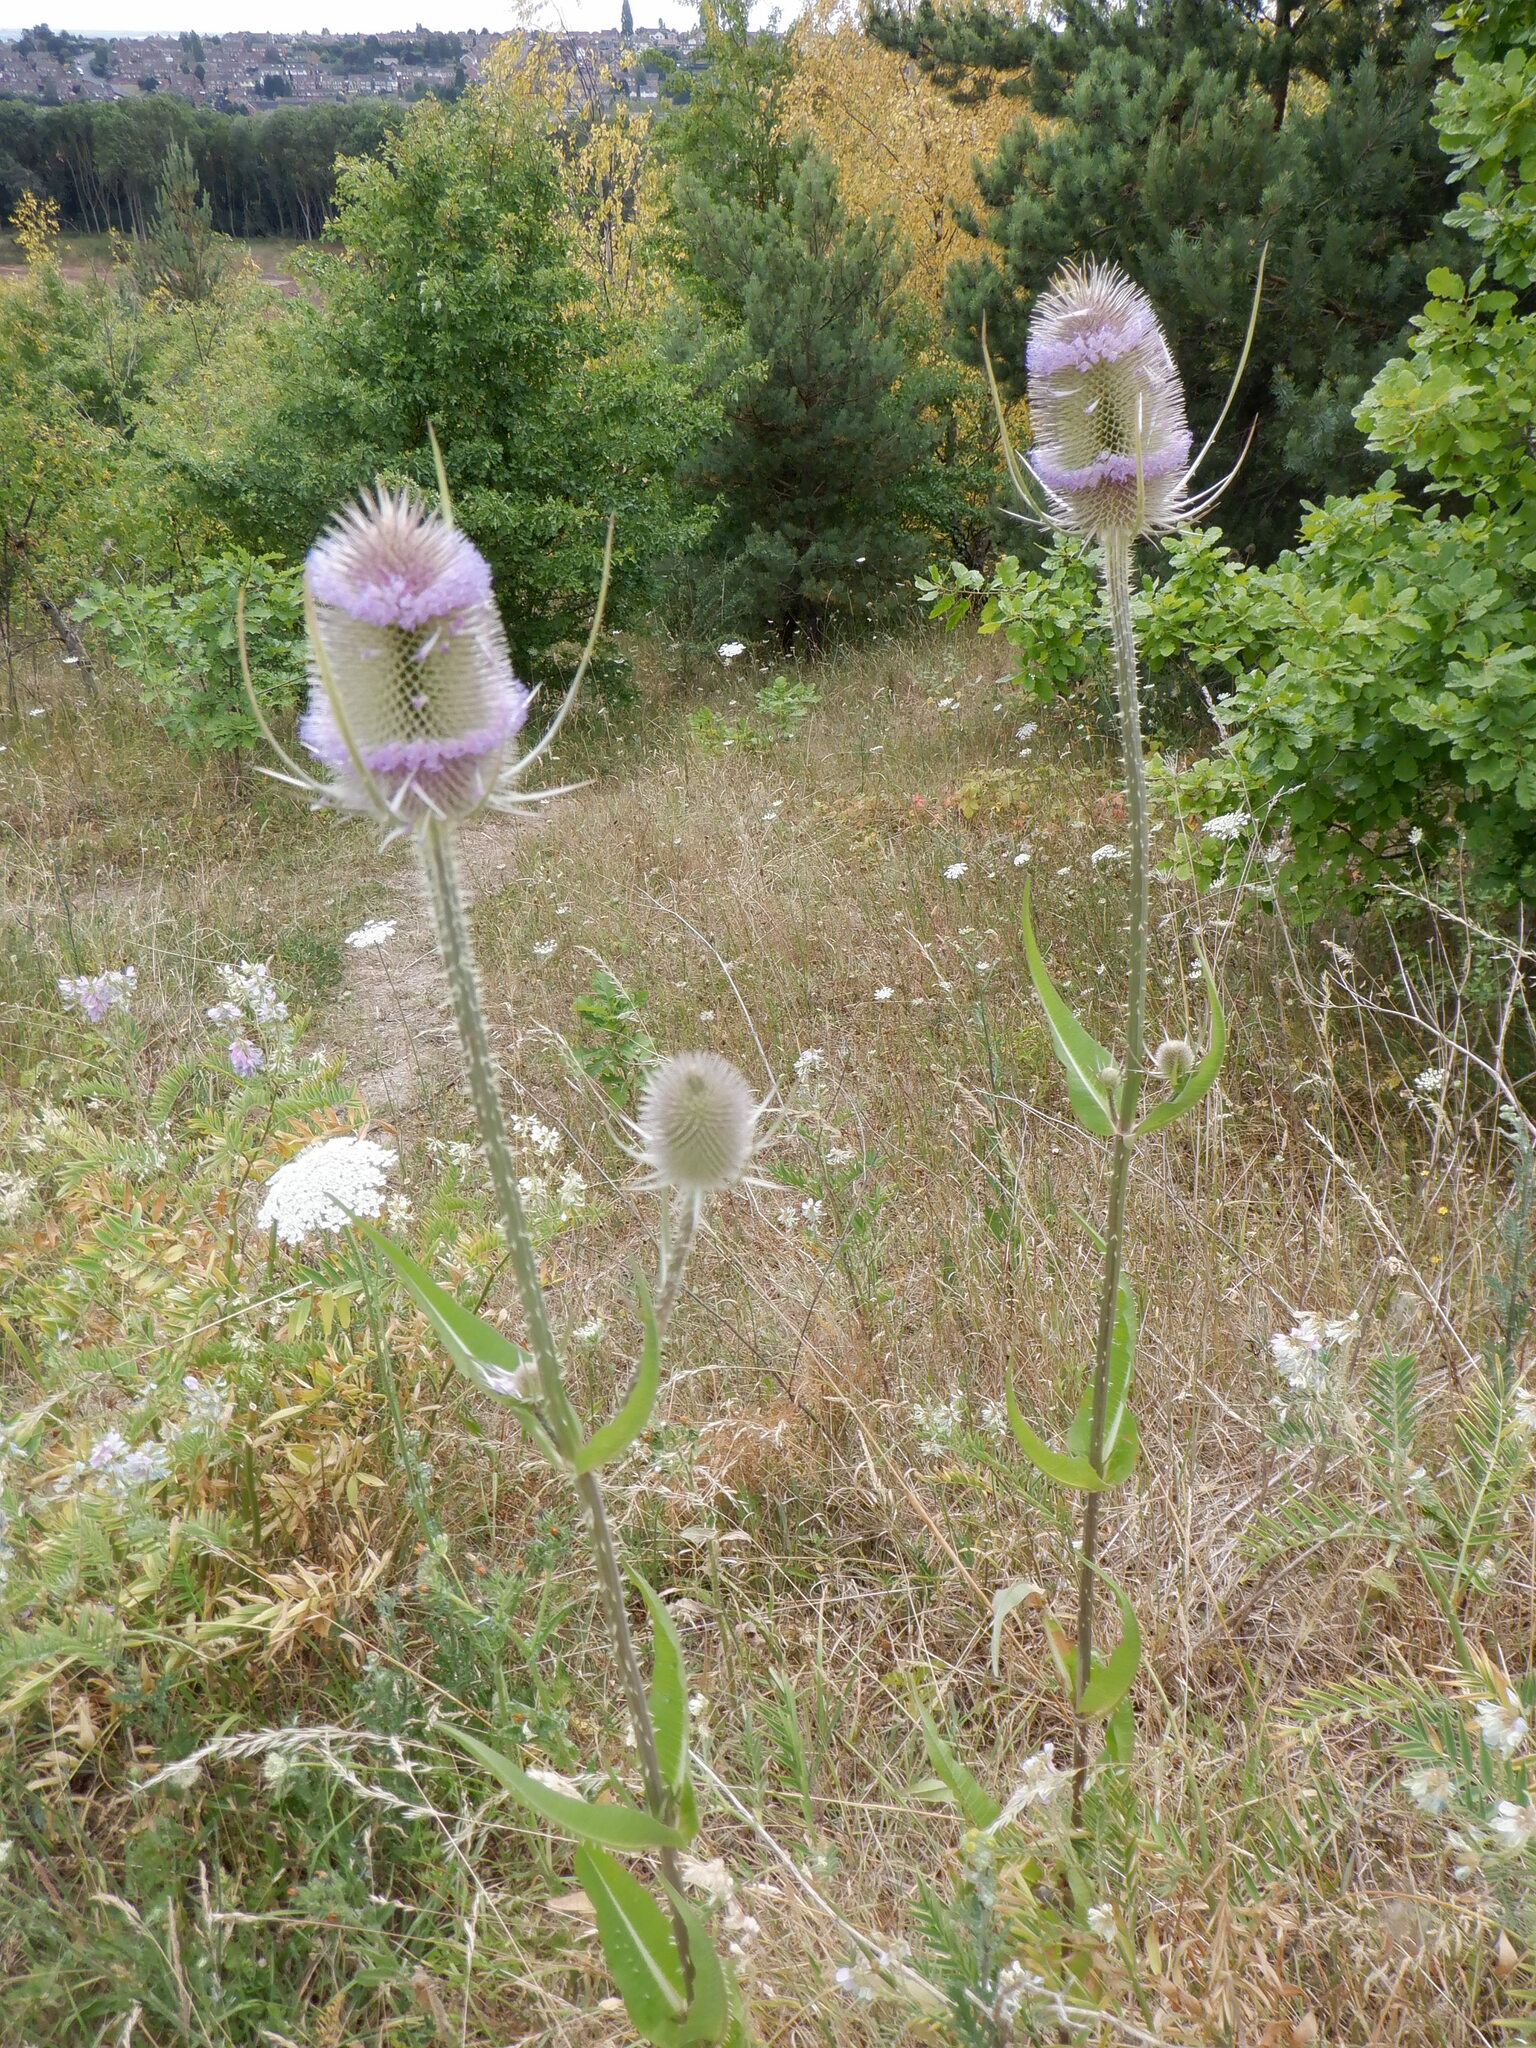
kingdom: Plantae
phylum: Tracheophyta
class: Magnoliopsida
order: Dipsacales
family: Caprifoliaceae
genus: Dipsacus
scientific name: Dipsacus fullonum
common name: Teasel
